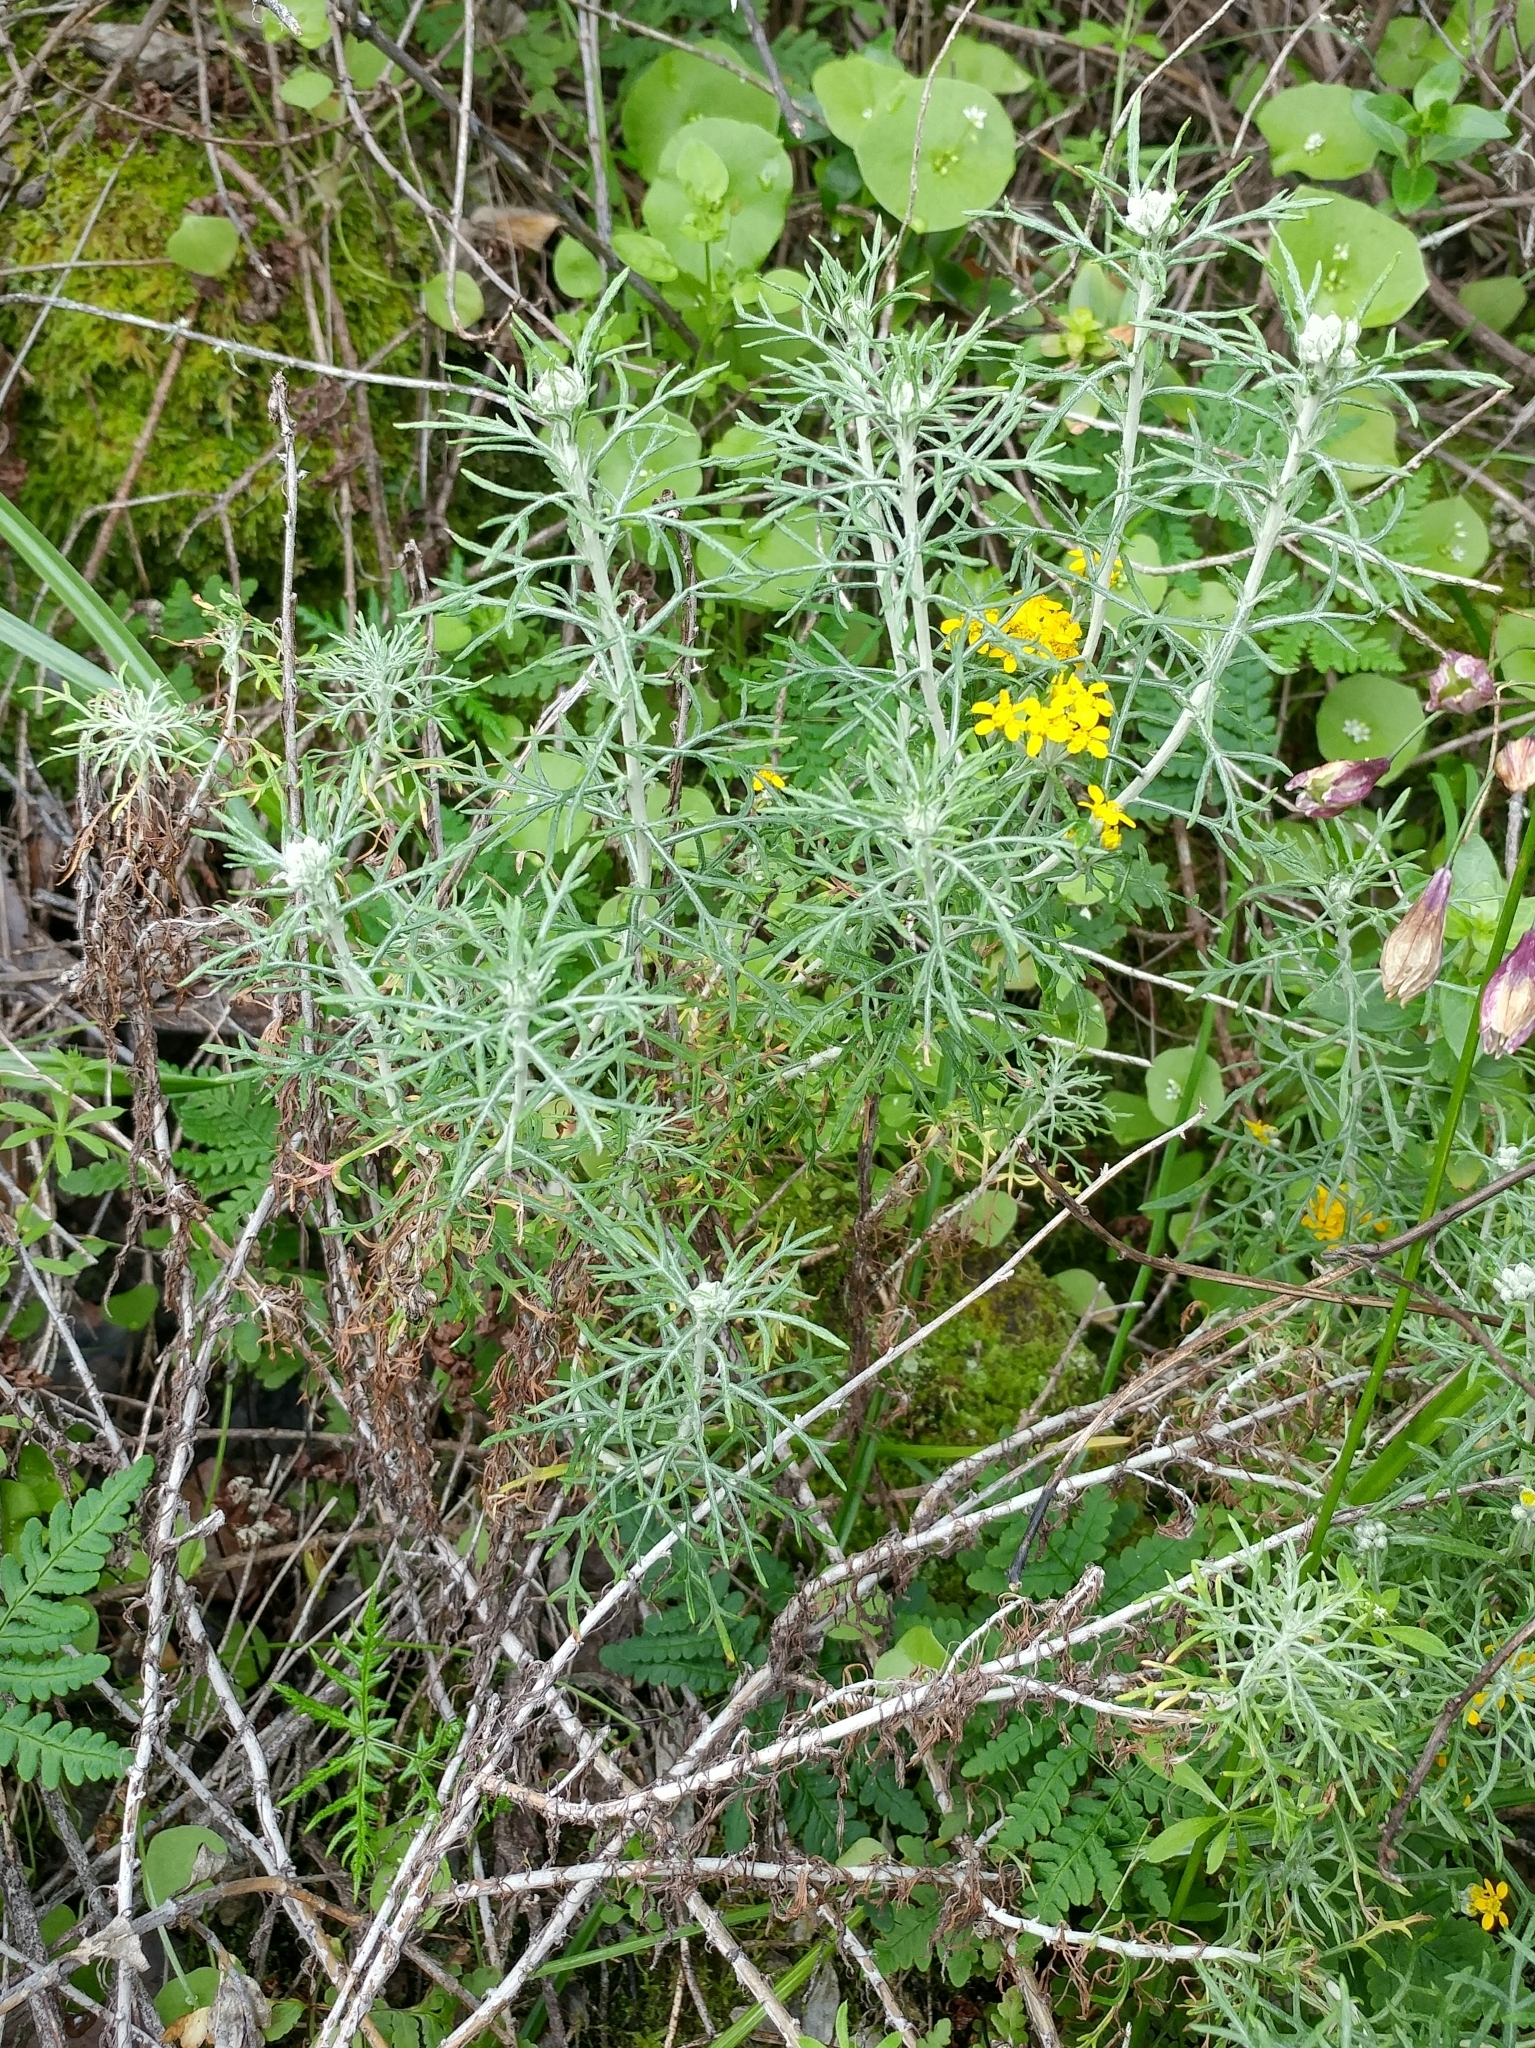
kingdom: Plantae
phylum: Tracheophyta
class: Magnoliopsida
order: Asterales
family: Asteraceae
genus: Eriophyllum
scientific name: Eriophyllum confertiflorum
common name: Golden-yarrow
